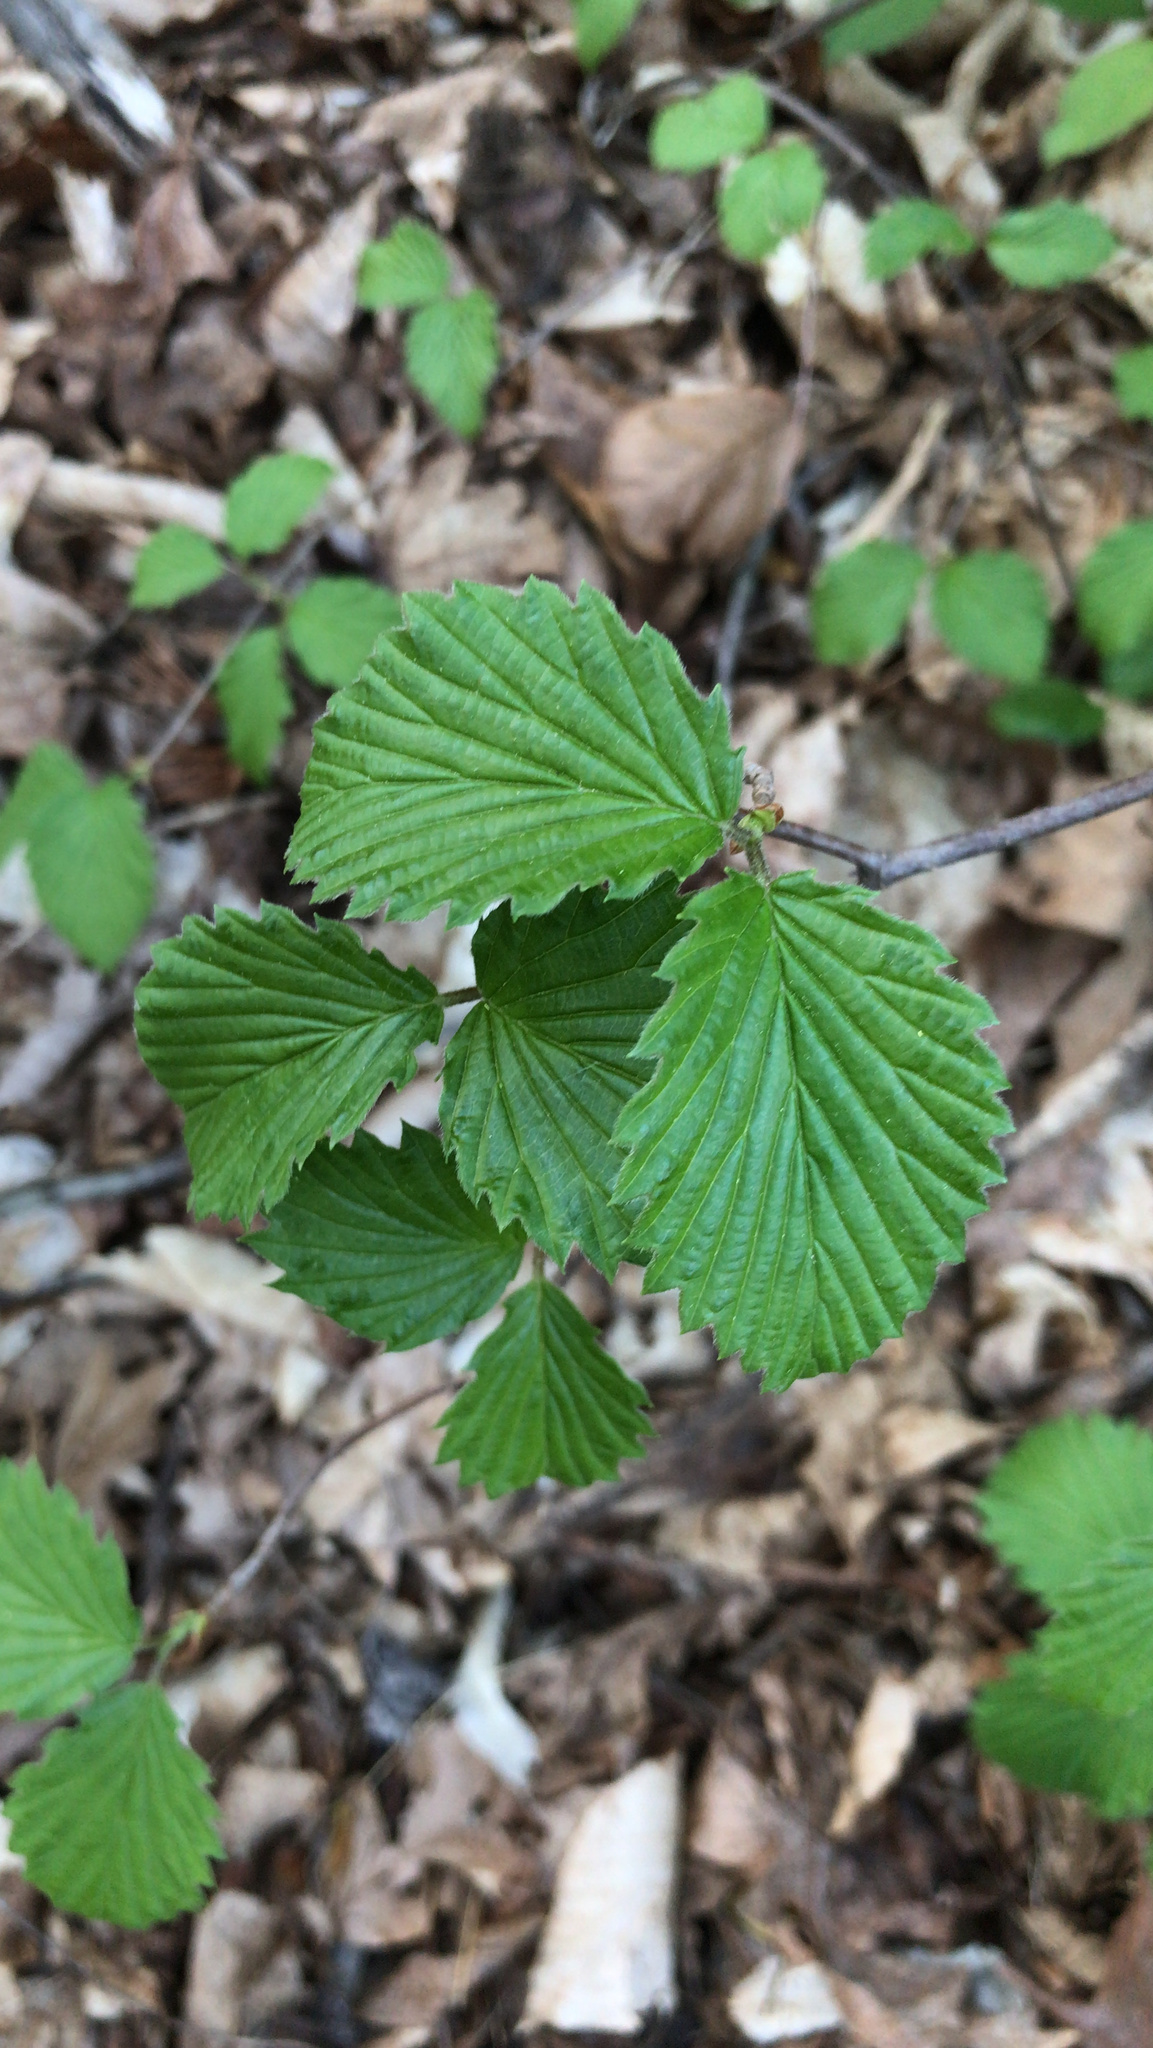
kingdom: Plantae
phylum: Tracheophyta
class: Magnoliopsida
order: Dipsacales
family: Viburnaceae
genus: Viburnum
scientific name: Viburnum dentatum
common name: Arrow-wood
